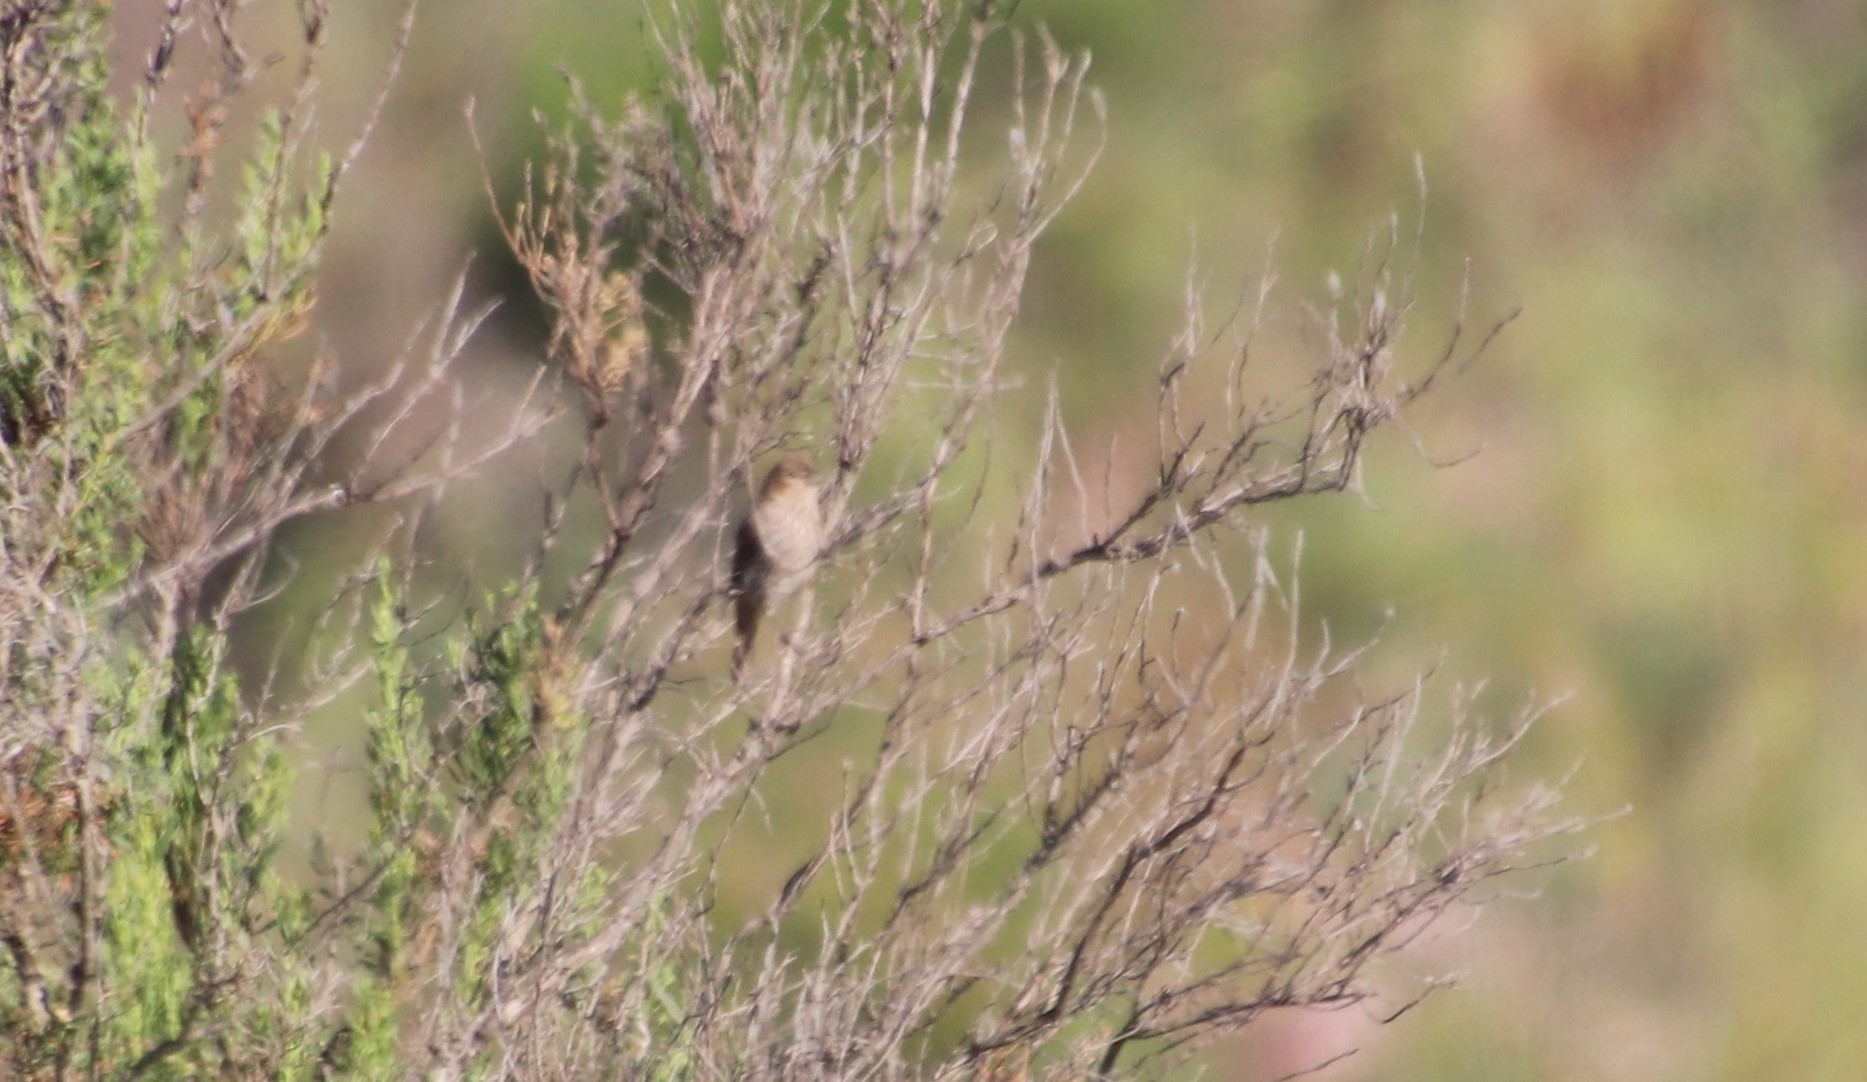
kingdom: Animalia
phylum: Chordata
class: Aves
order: Passeriformes
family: Cardinalidae
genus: Passerina
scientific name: Passerina amoena
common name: Lazuli bunting
